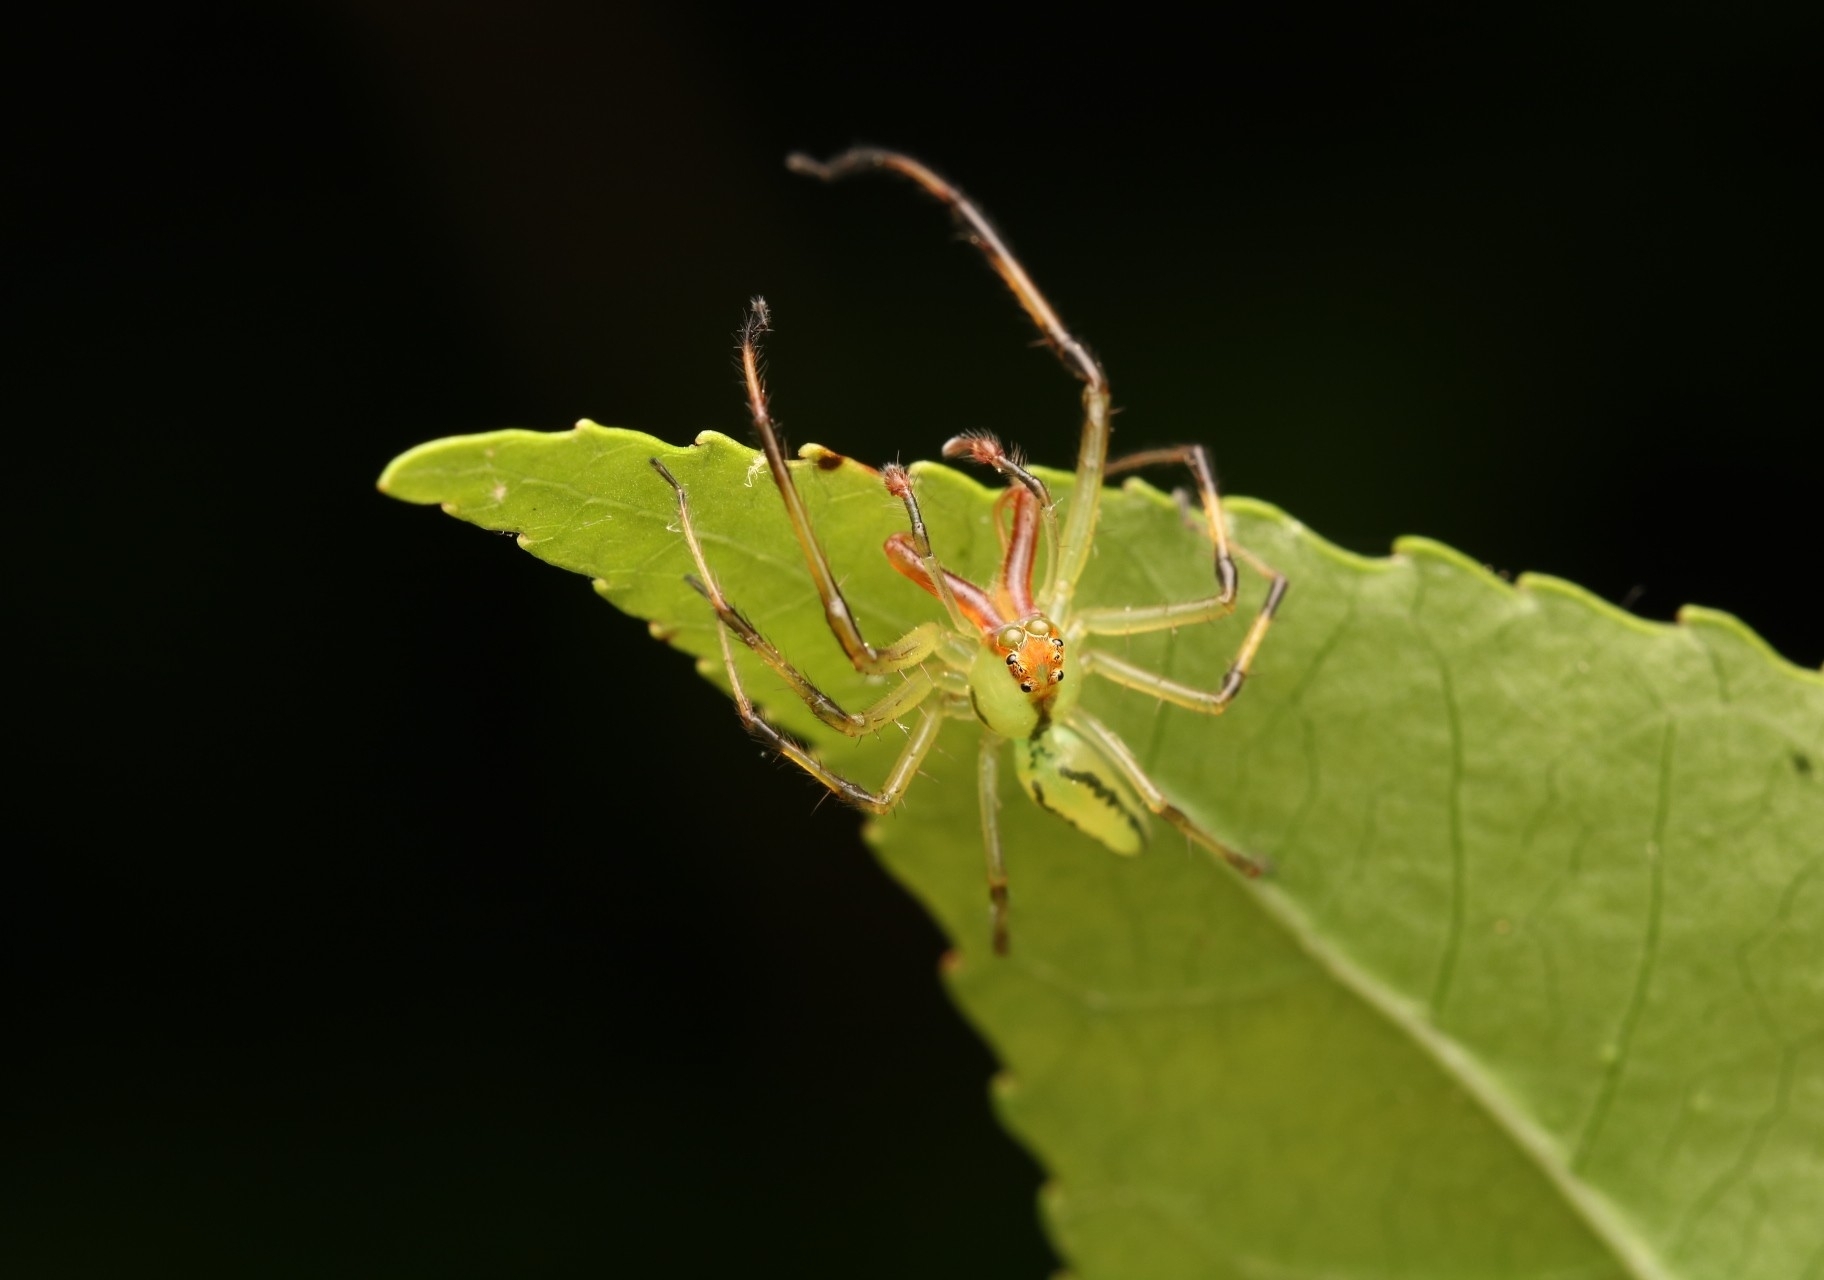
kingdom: Animalia
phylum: Arthropoda
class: Arachnida
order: Araneae
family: Salticidae
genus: Lyssomanes
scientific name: Lyssomanes viridis
